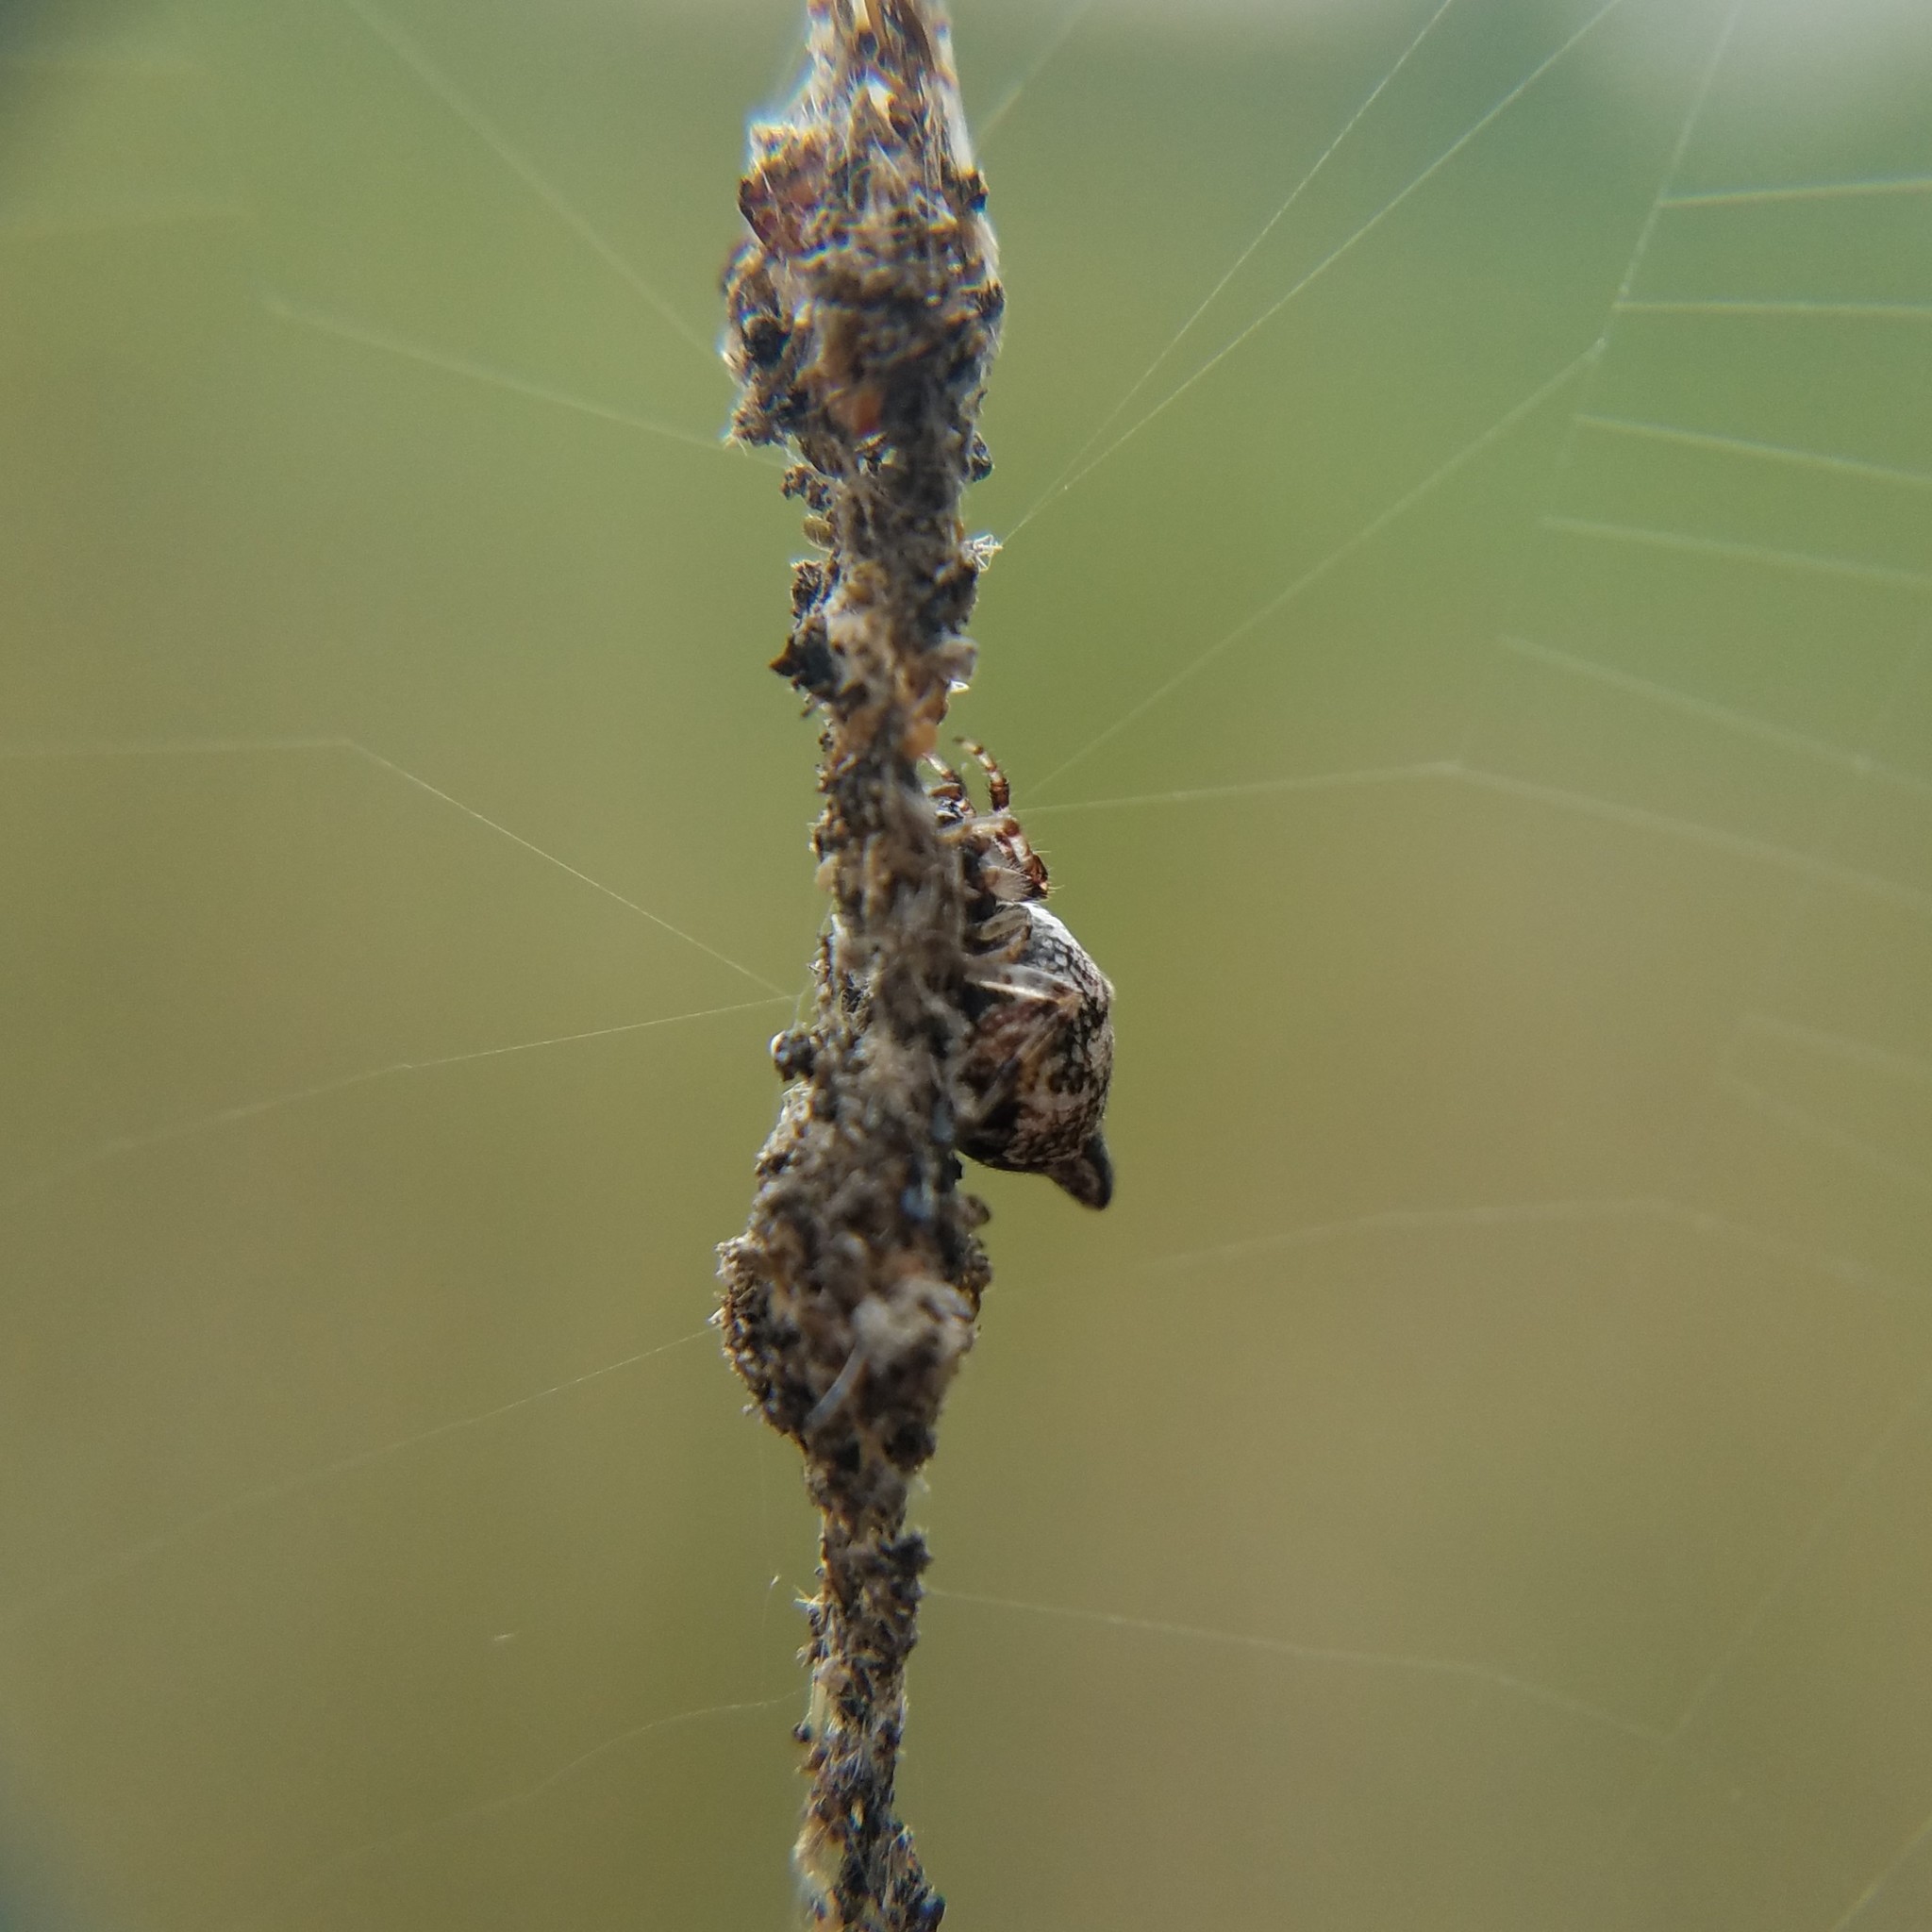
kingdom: Animalia
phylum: Arthropoda
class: Arachnida
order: Araneae
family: Araneidae
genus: Cyclosa
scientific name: Cyclosa turbinata
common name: Orb weavers
